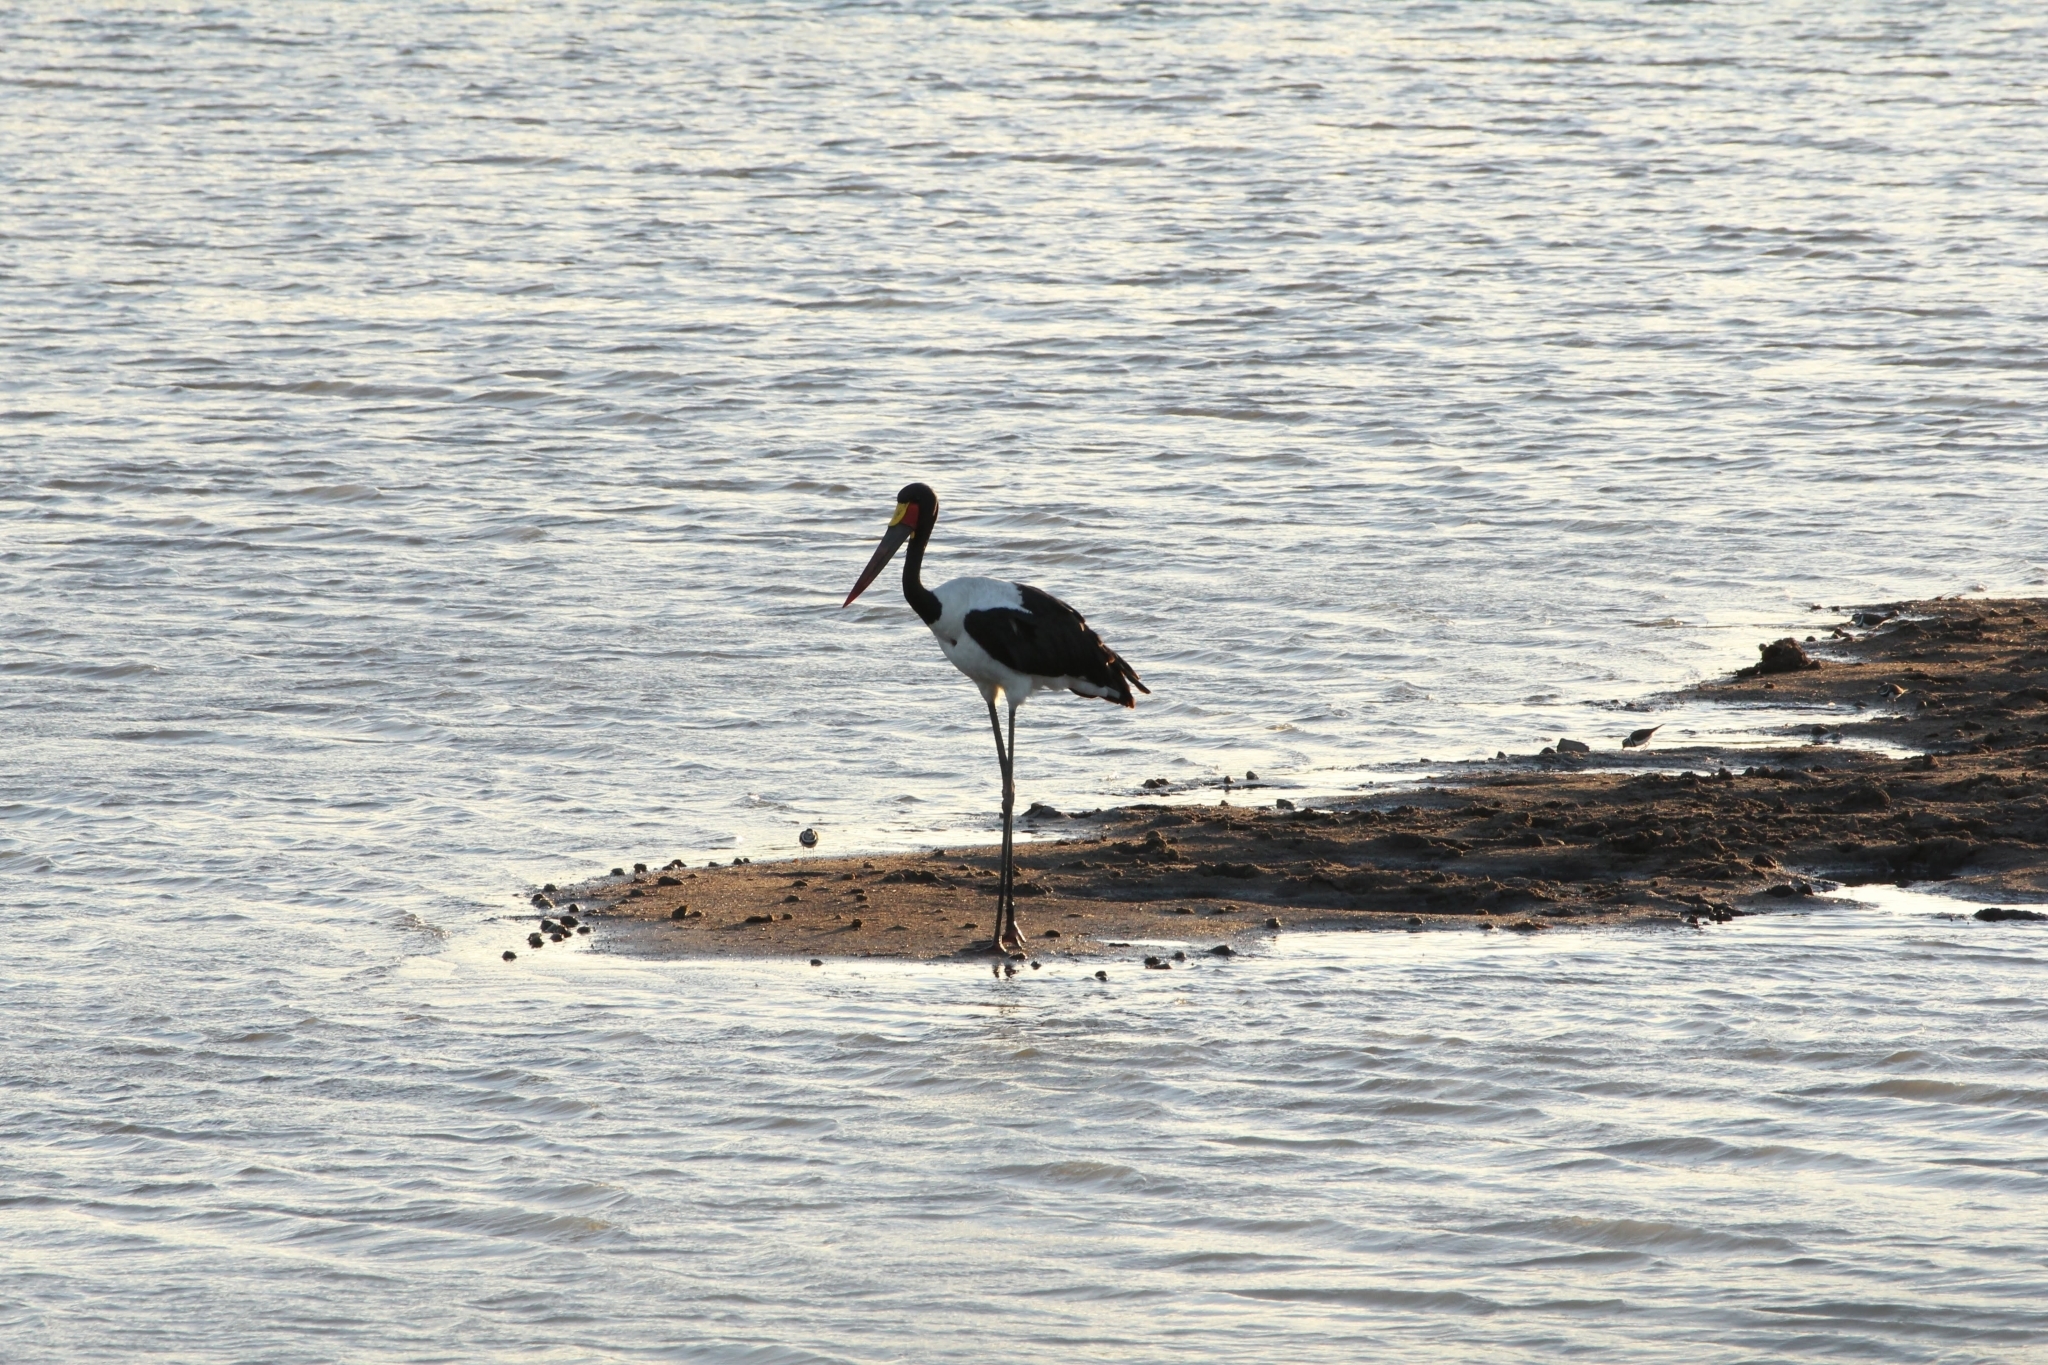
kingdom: Animalia
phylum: Chordata
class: Aves
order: Ciconiiformes
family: Ciconiidae
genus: Ephippiorhynchus
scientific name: Ephippiorhynchus senegalensis
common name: Saddle-billed stork
